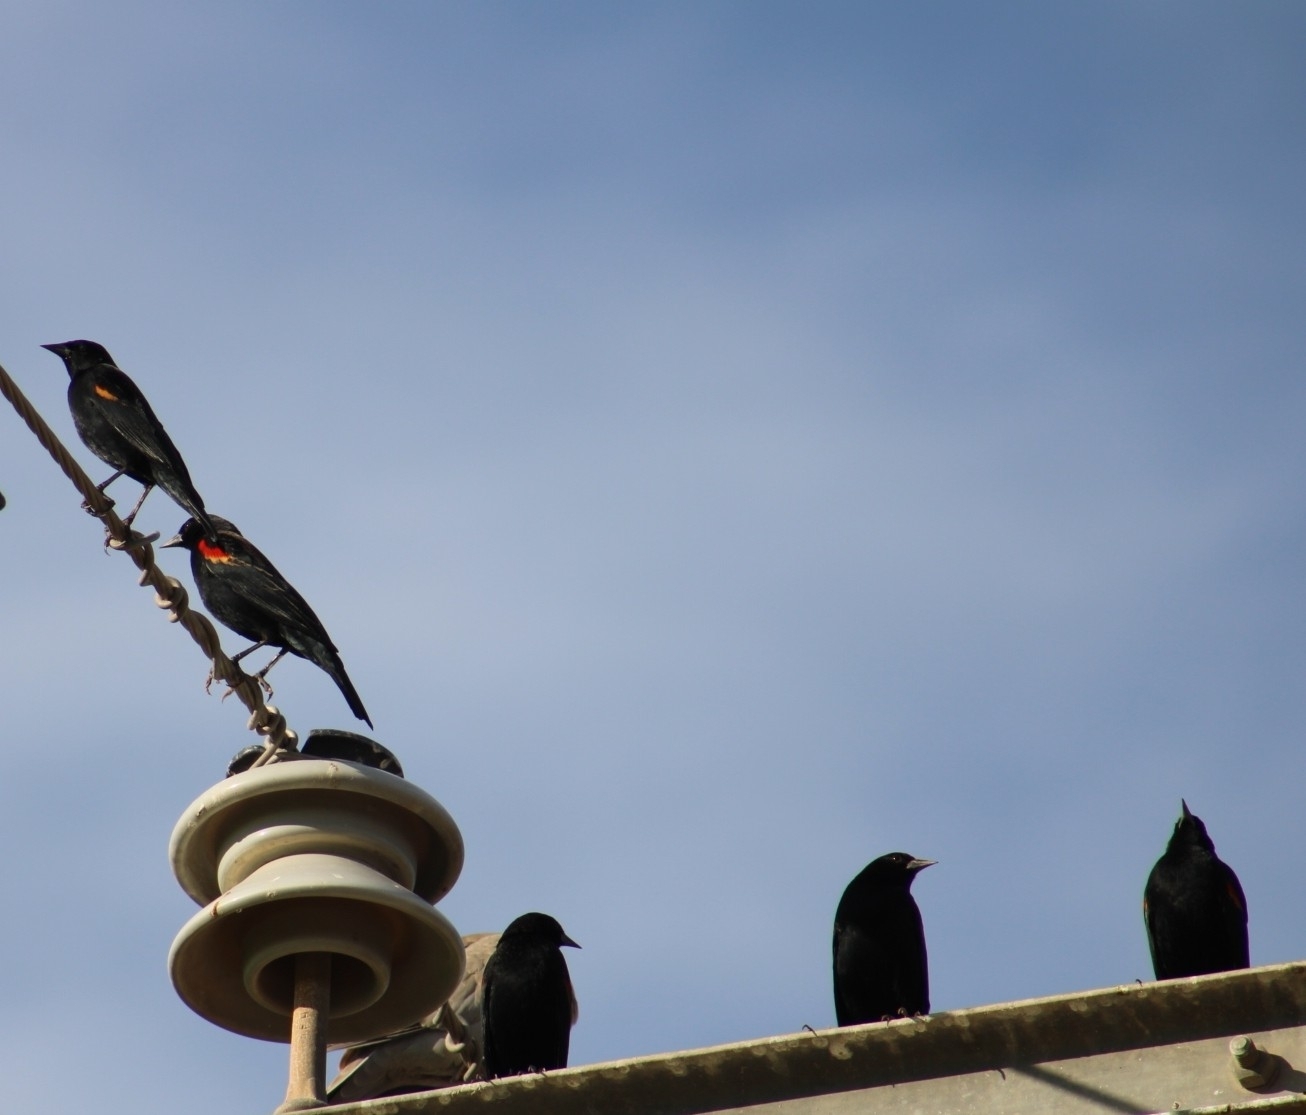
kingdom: Animalia
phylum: Chordata
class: Aves
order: Passeriformes
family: Icteridae
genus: Agelaius
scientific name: Agelaius phoeniceus
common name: Red-winged blackbird
